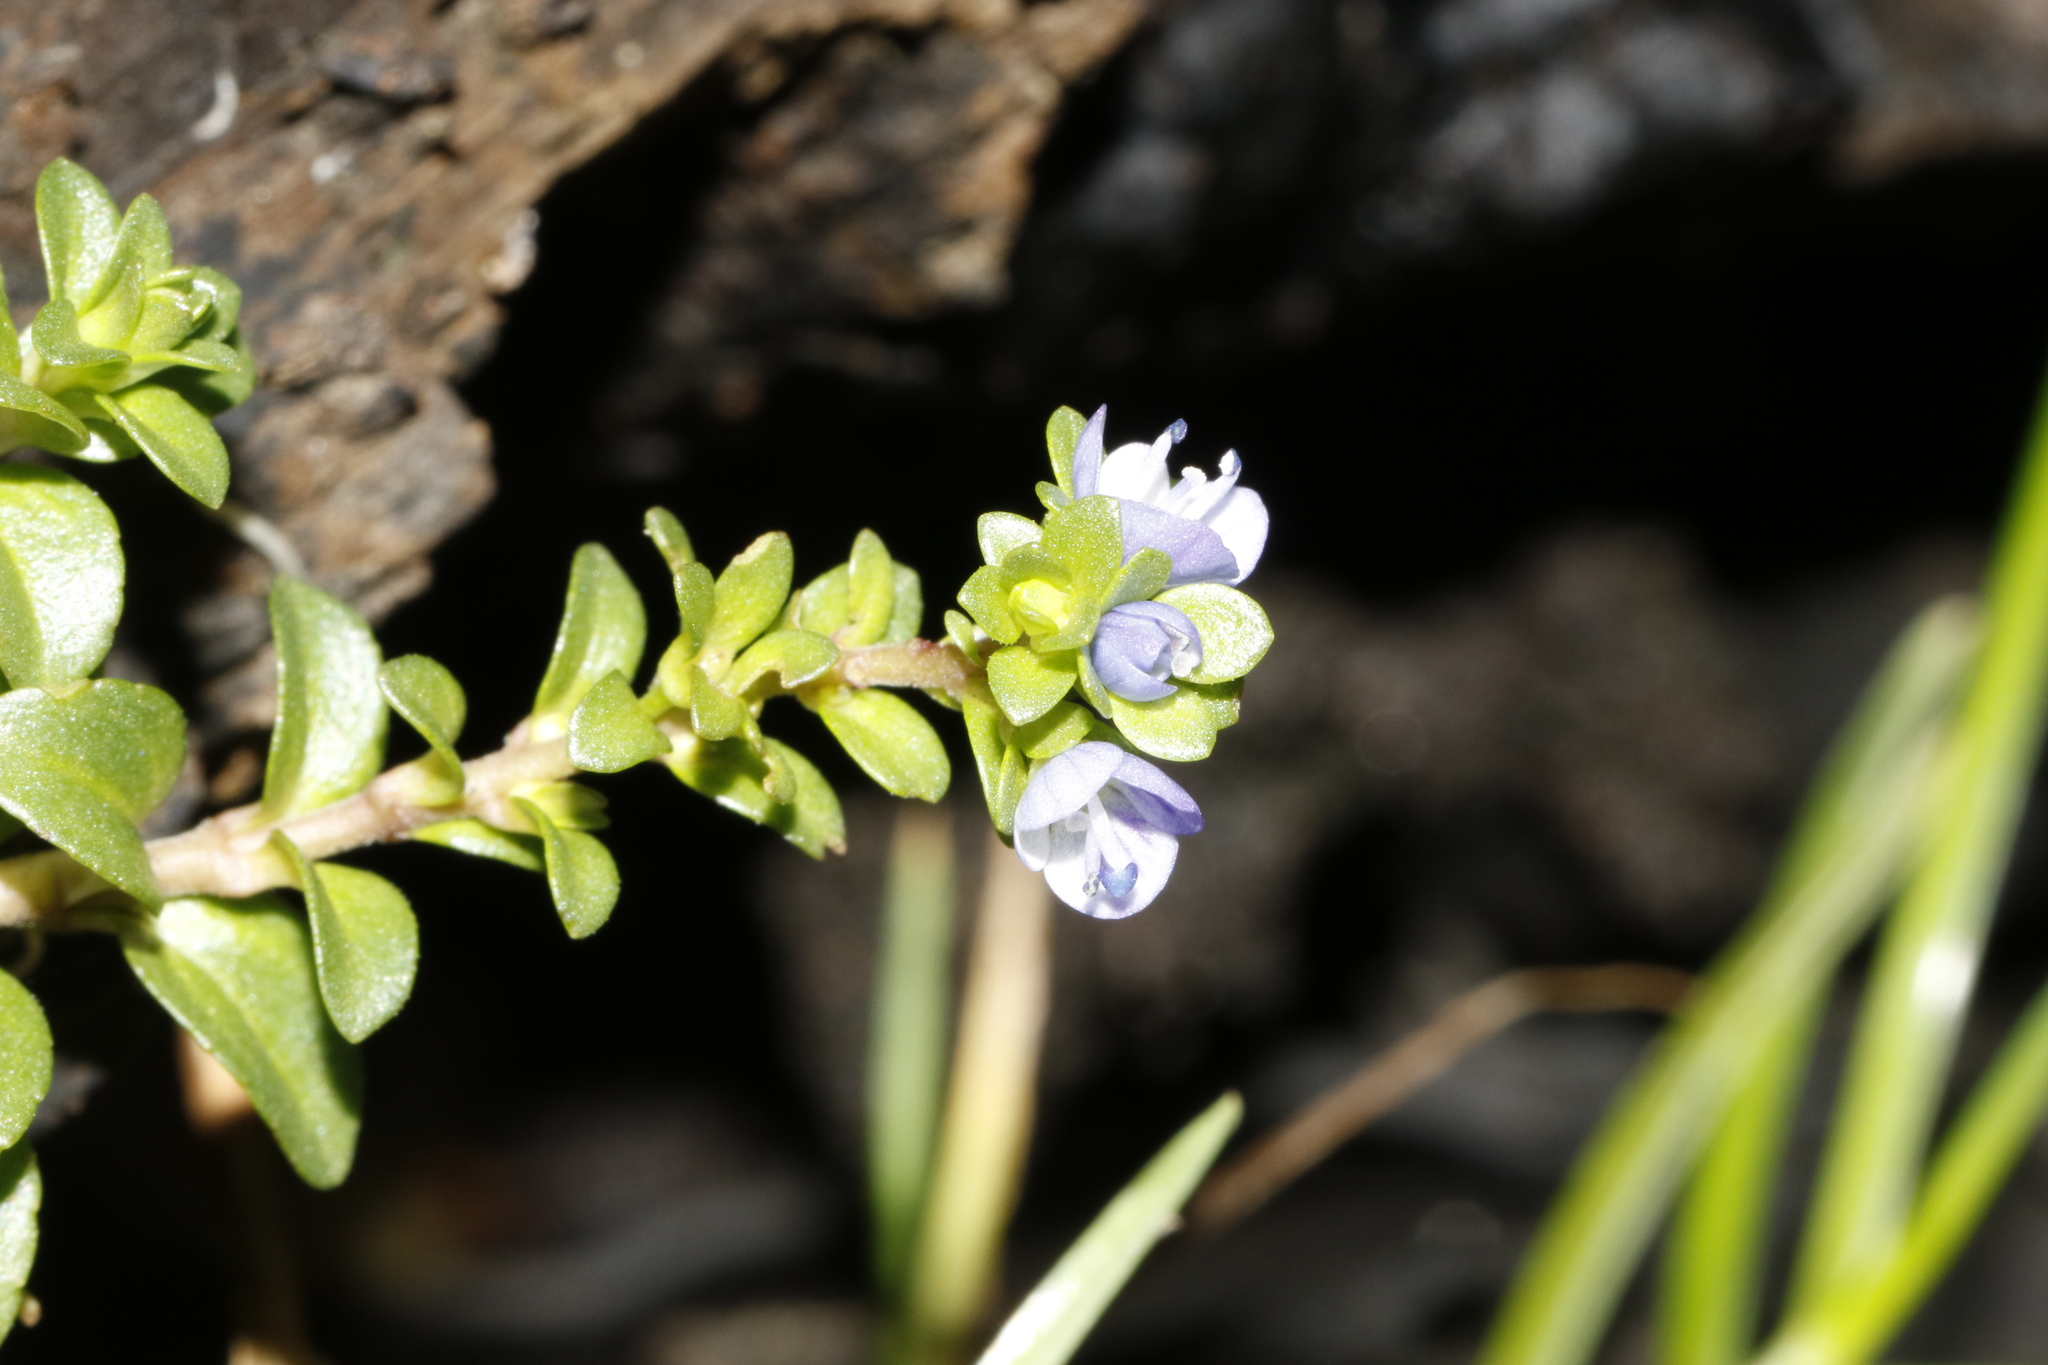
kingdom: Plantae
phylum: Tracheophyta
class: Magnoliopsida
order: Lamiales
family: Plantaginaceae
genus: Veronica
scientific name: Veronica serpyllifolia
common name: Thyme-leaved speedwell
